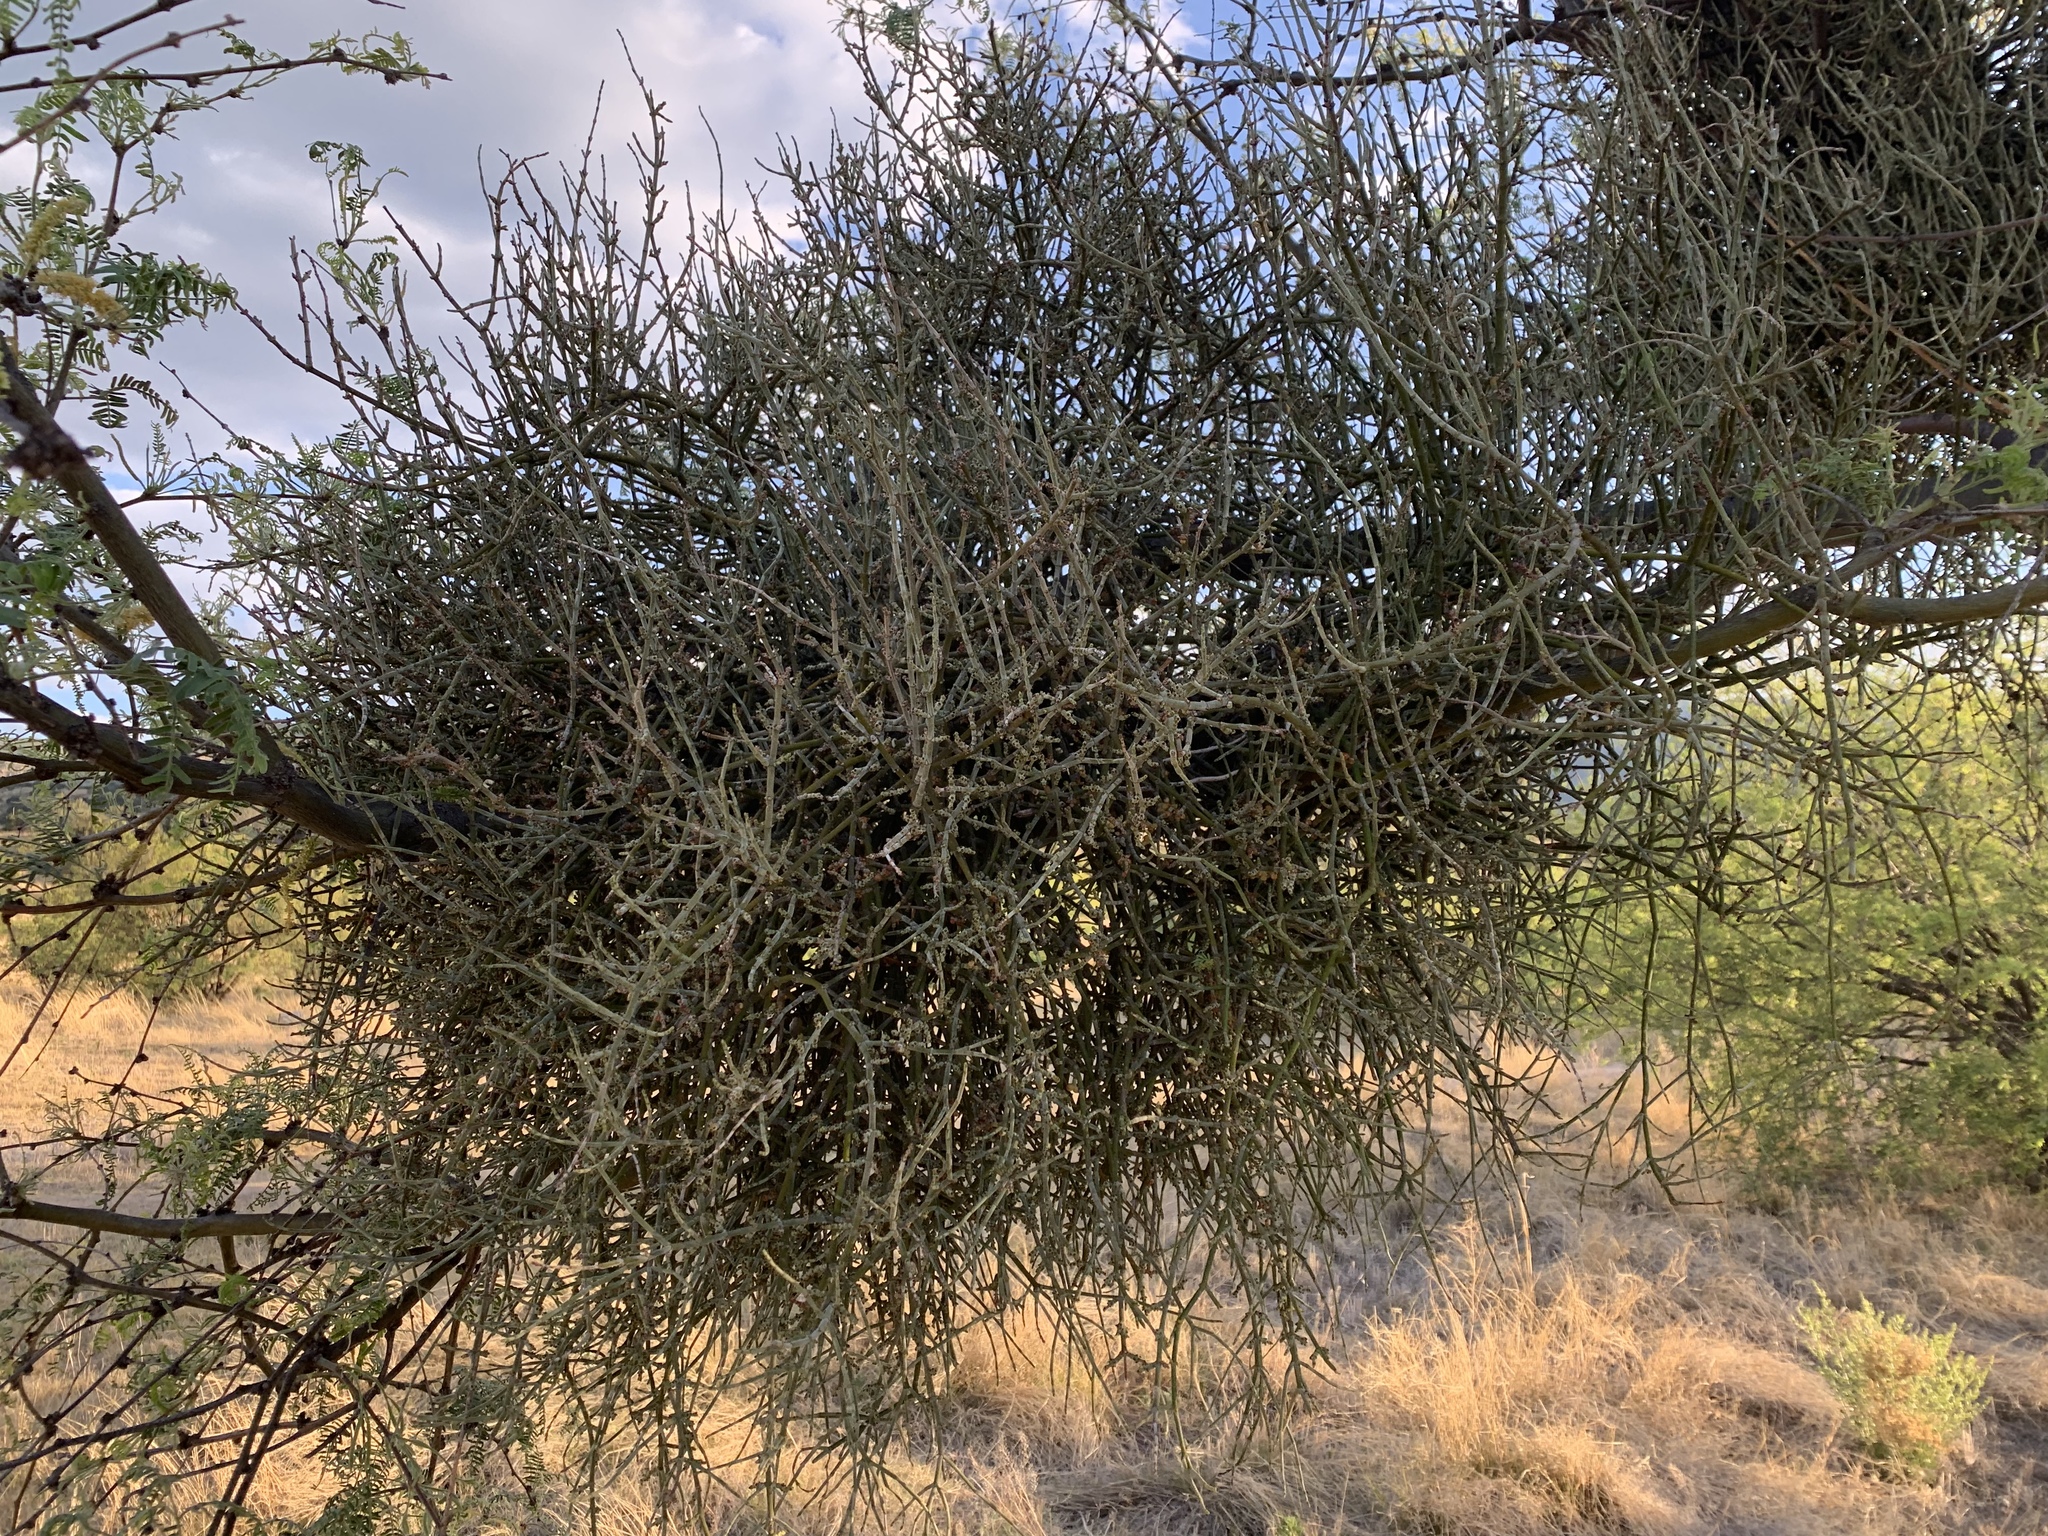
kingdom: Plantae
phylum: Tracheophyta
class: Magnoliopsida
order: Santalales
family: Viscaceae
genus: Phoradendron
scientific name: Phoradendron californicum
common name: Acacia mistletoe
